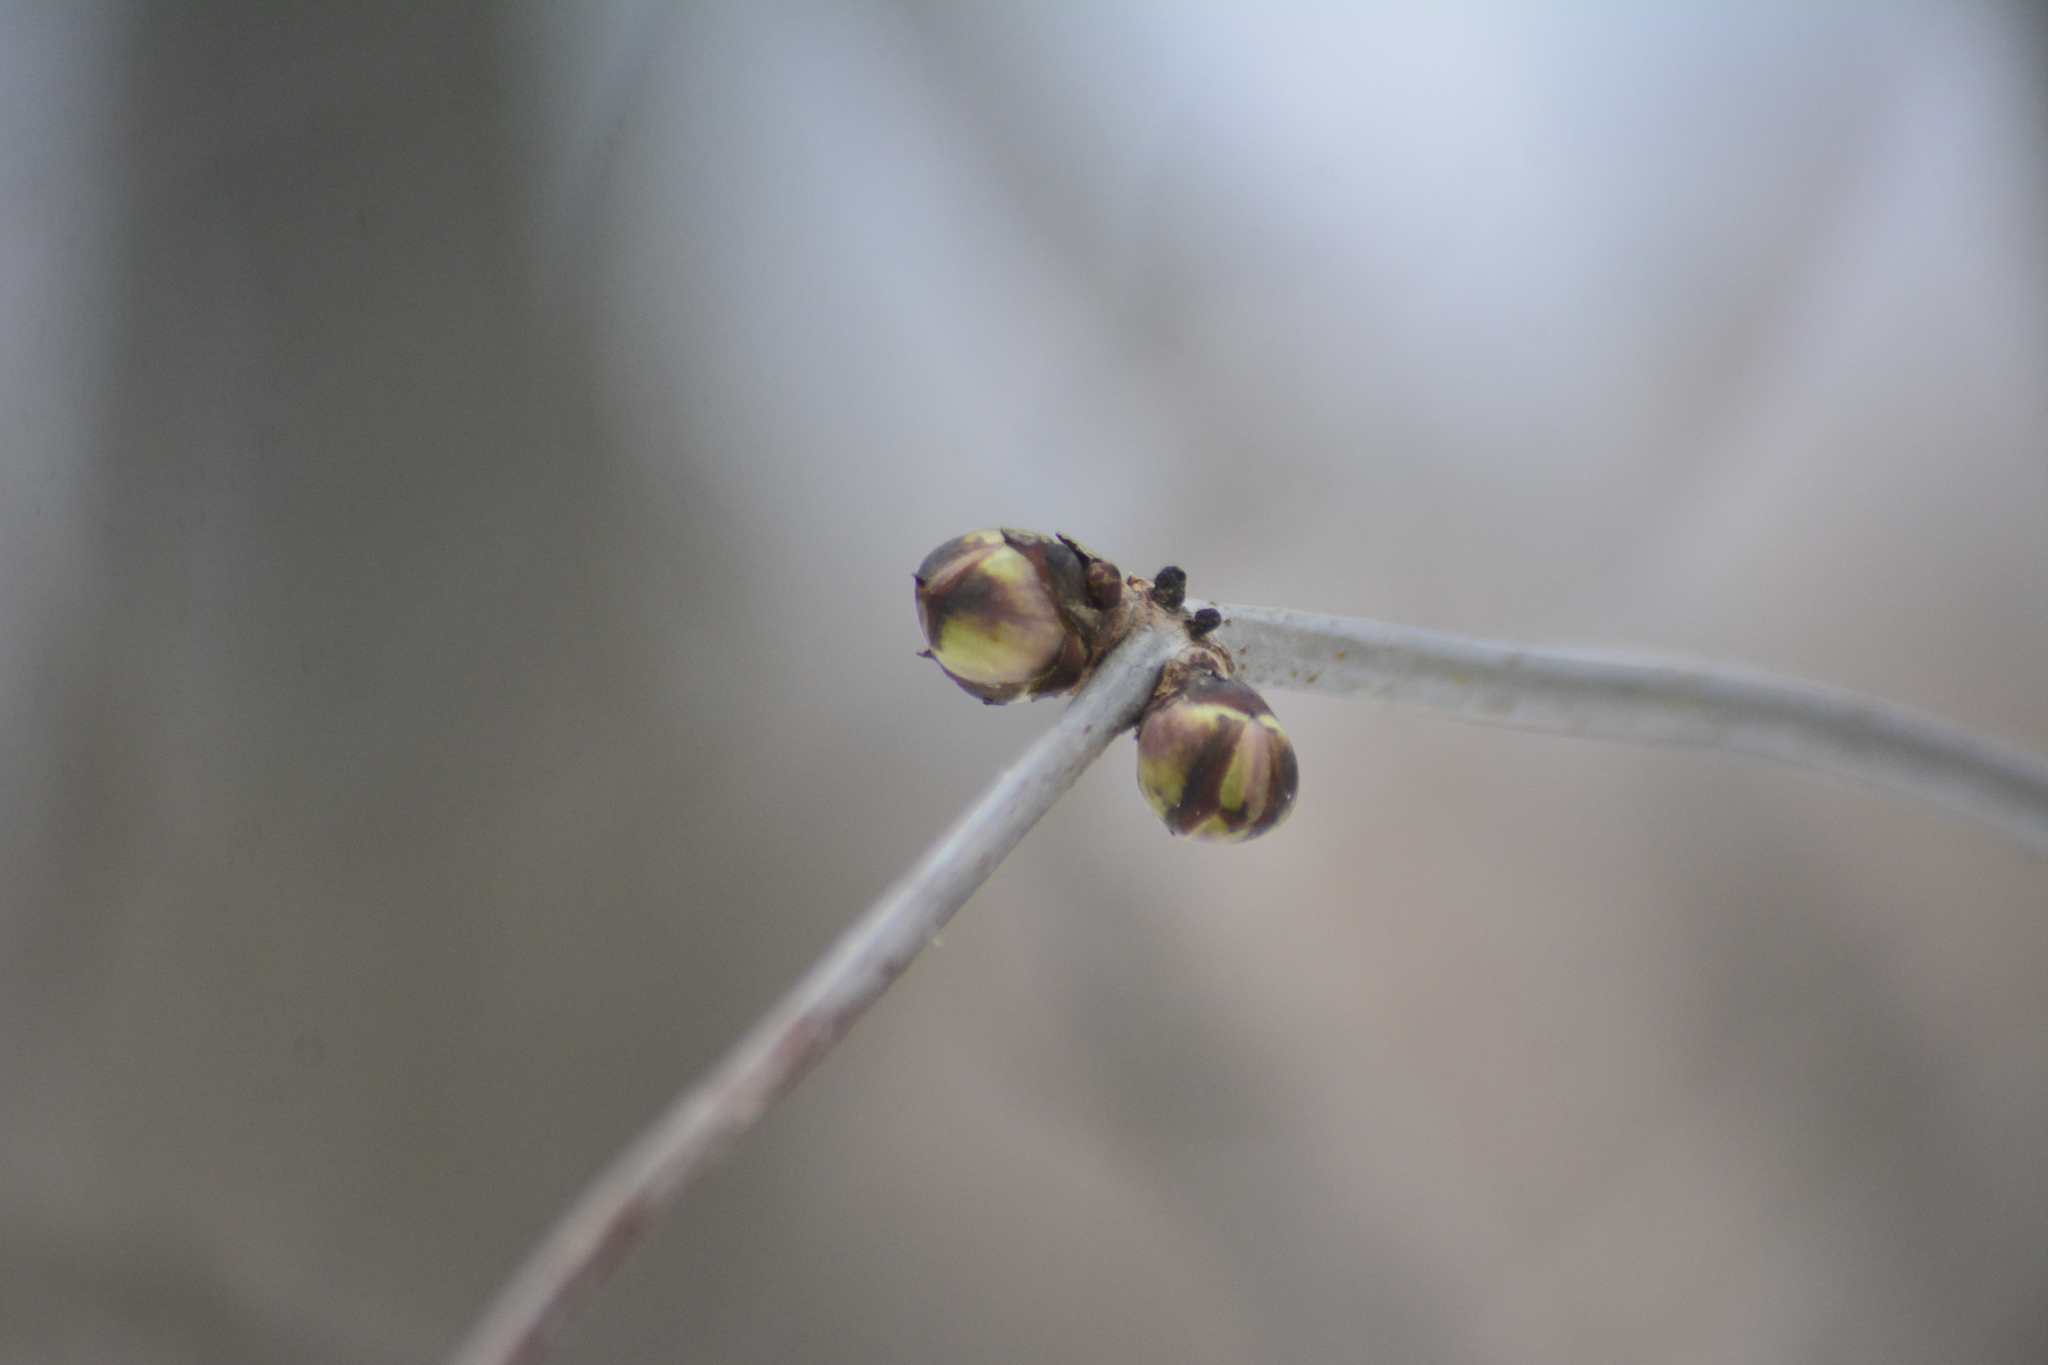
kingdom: Plantae
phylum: Tracheophyta
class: Magnoliopsida
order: Dipsacales
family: Viburnaceae
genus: Sambucus
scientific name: Sambucus racemosa
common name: Red-berried elder
